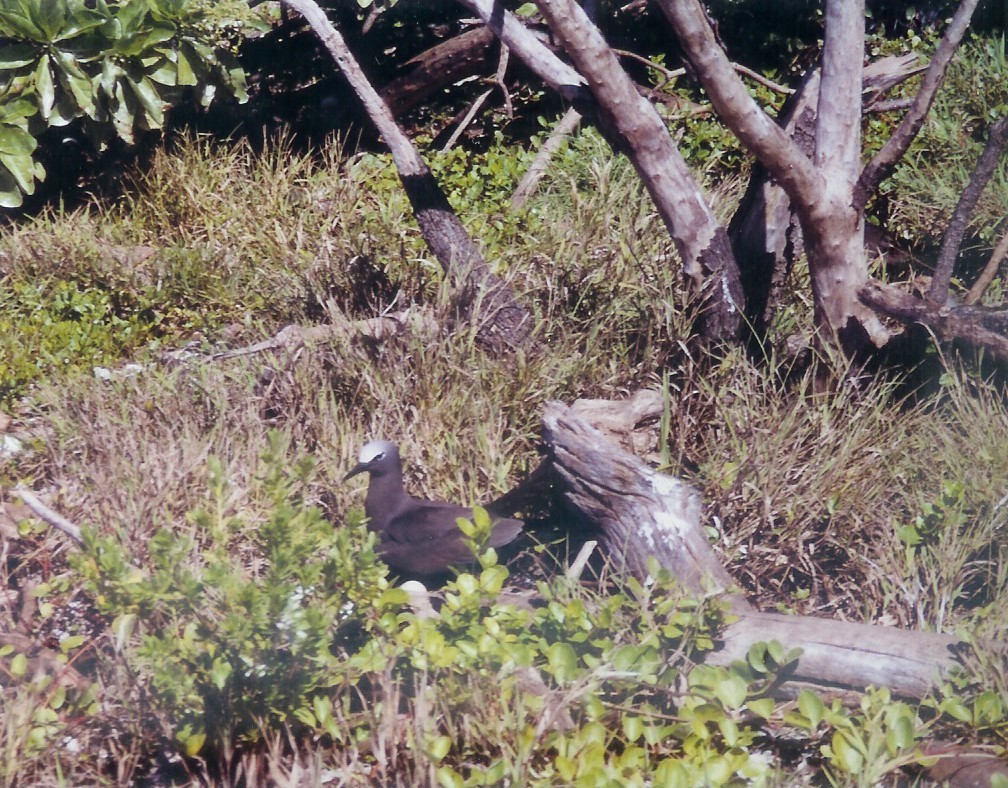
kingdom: Animalia
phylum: Chordata
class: Aves
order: Charadriiformes
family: Laridae
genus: Anous
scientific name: Anous stolidus
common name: Brown noddy
